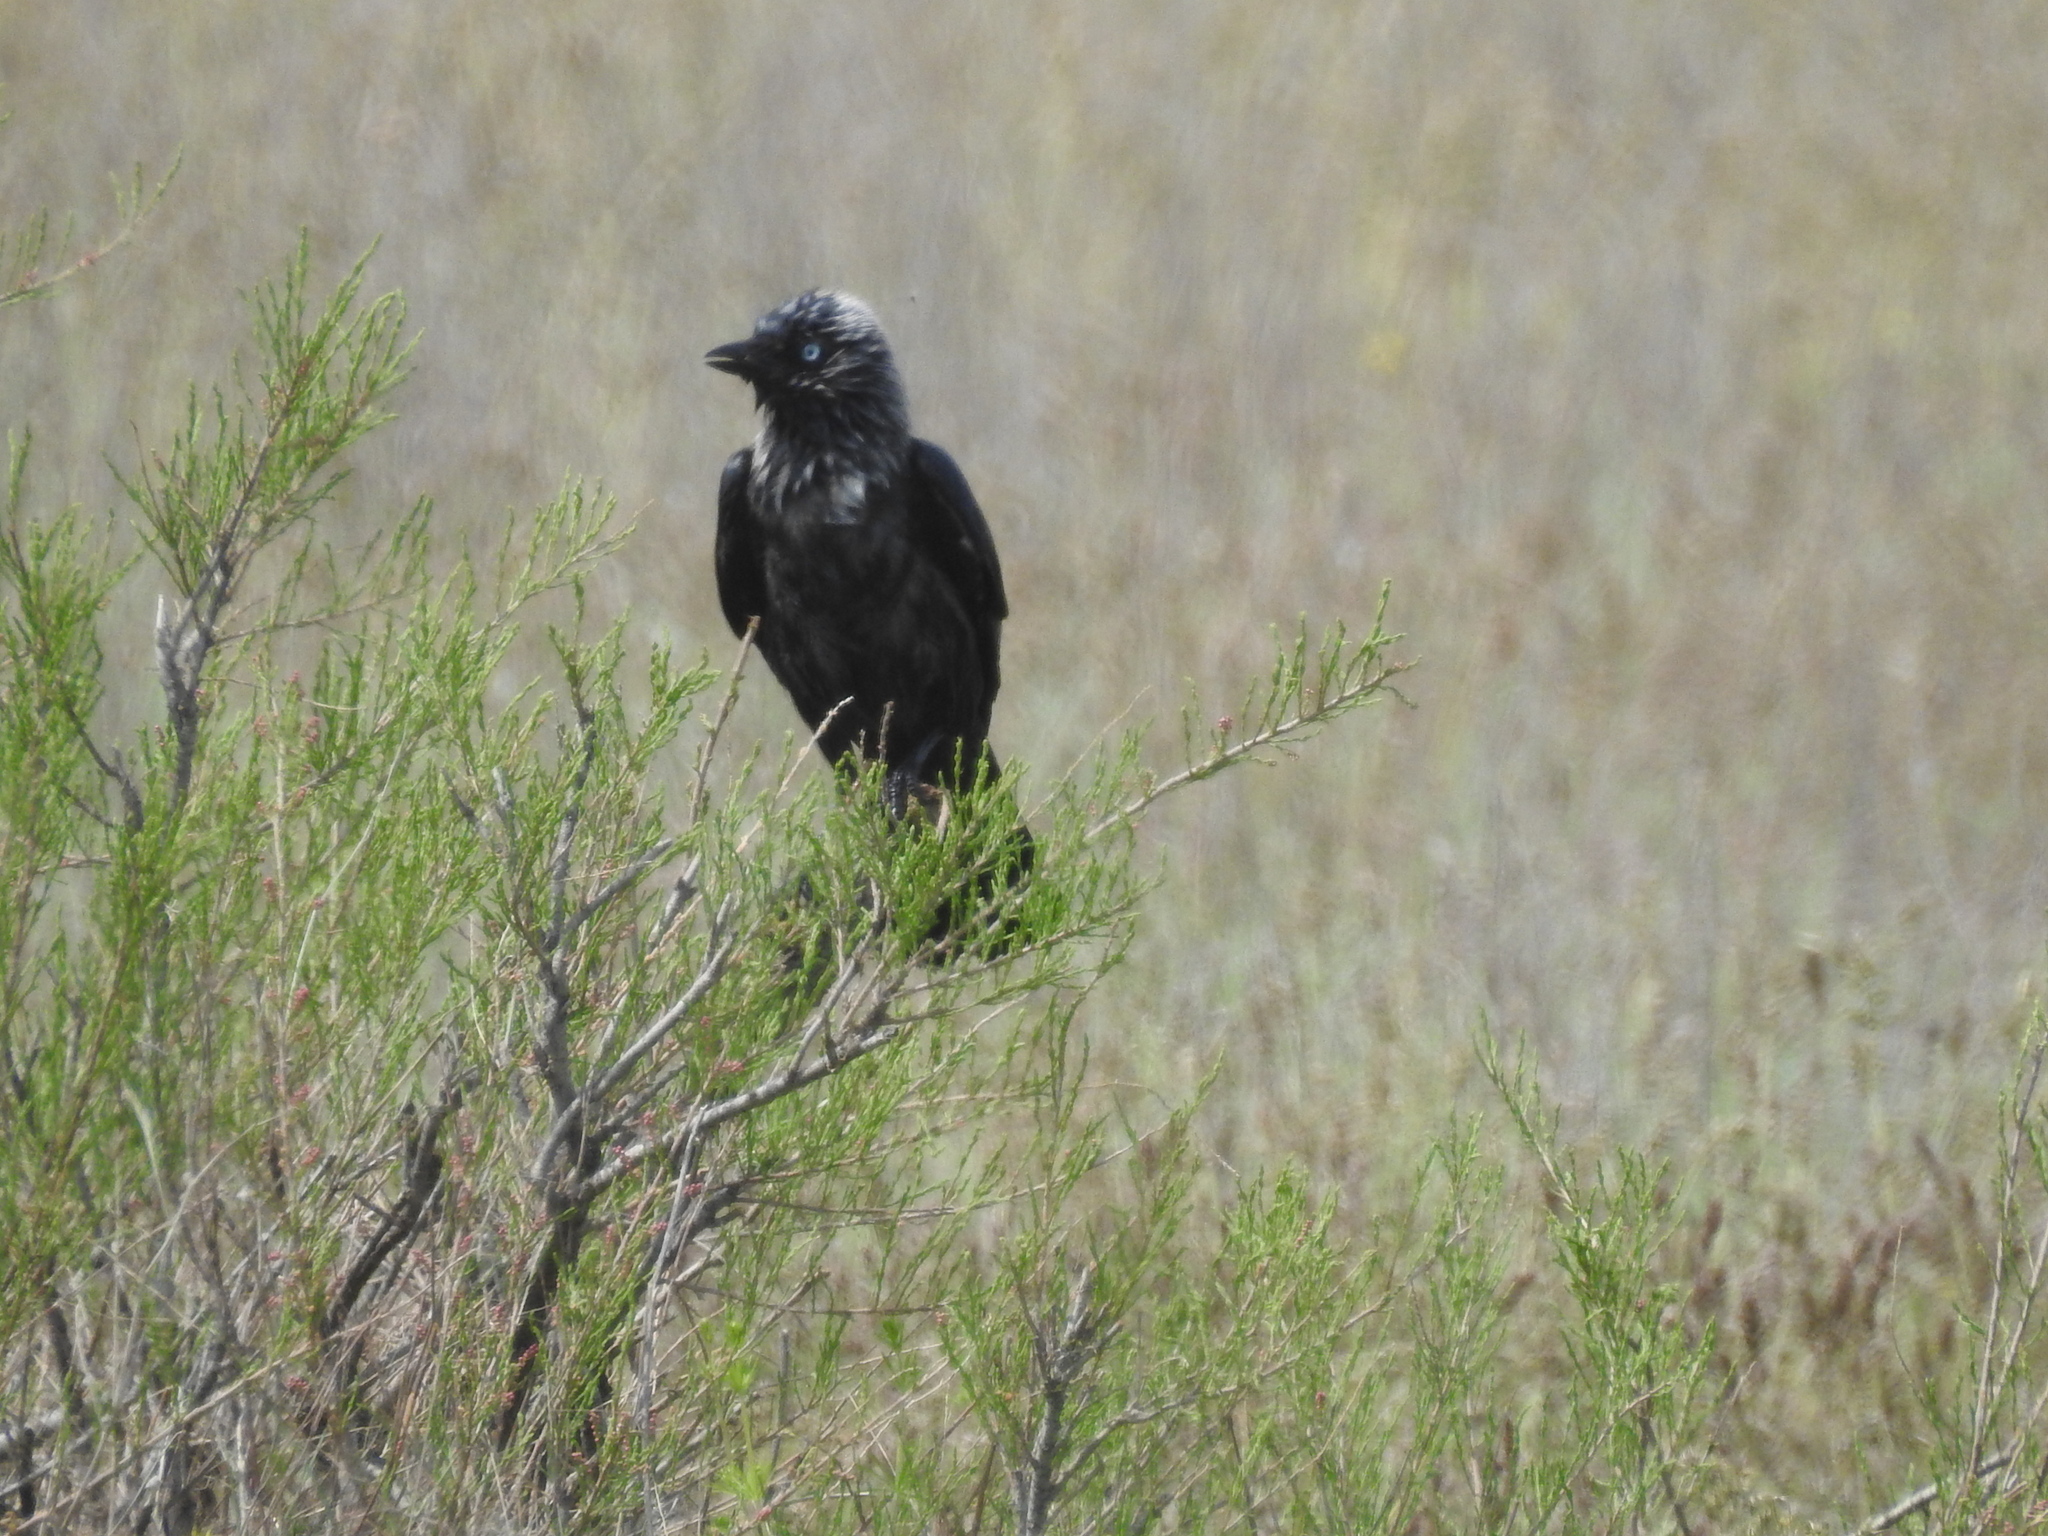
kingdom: Animalia
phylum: Chordata
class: Aves
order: Passeriformes
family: Corvidae
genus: Coloeus
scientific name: Coloeus monedula
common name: Western jackdaw
